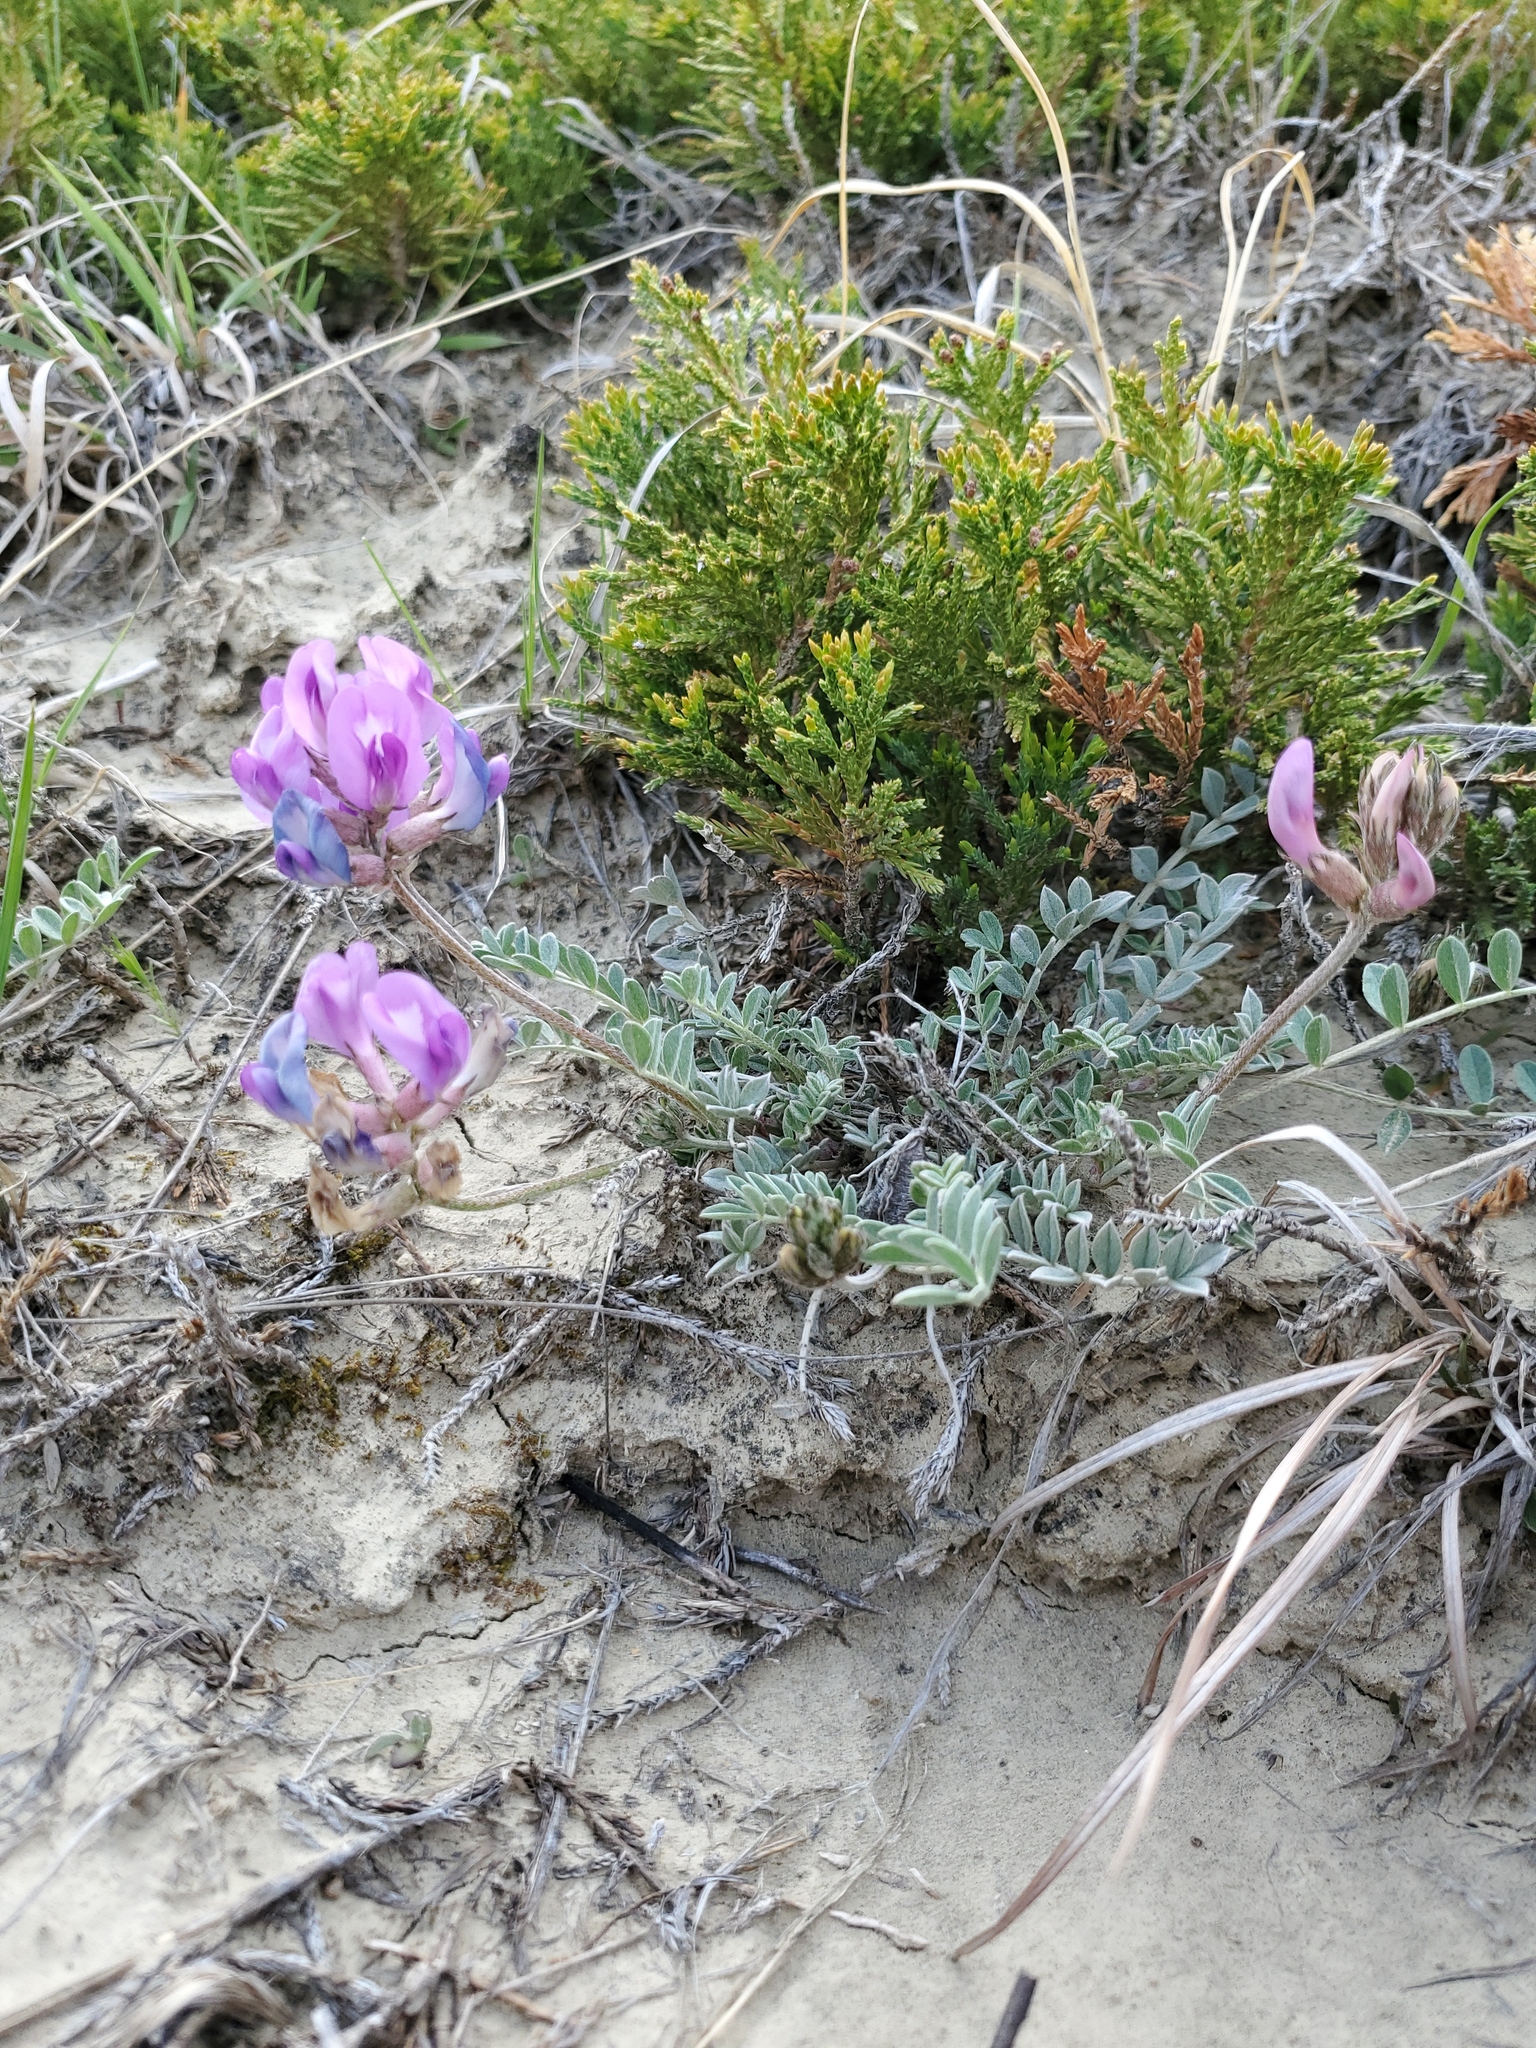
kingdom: Plantae
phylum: Tracheophyta
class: Magnoliopsida
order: Fabales
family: Fabaceae
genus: Astragalus
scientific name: Astragalus missouriensis
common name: Missouri milk-vetch
